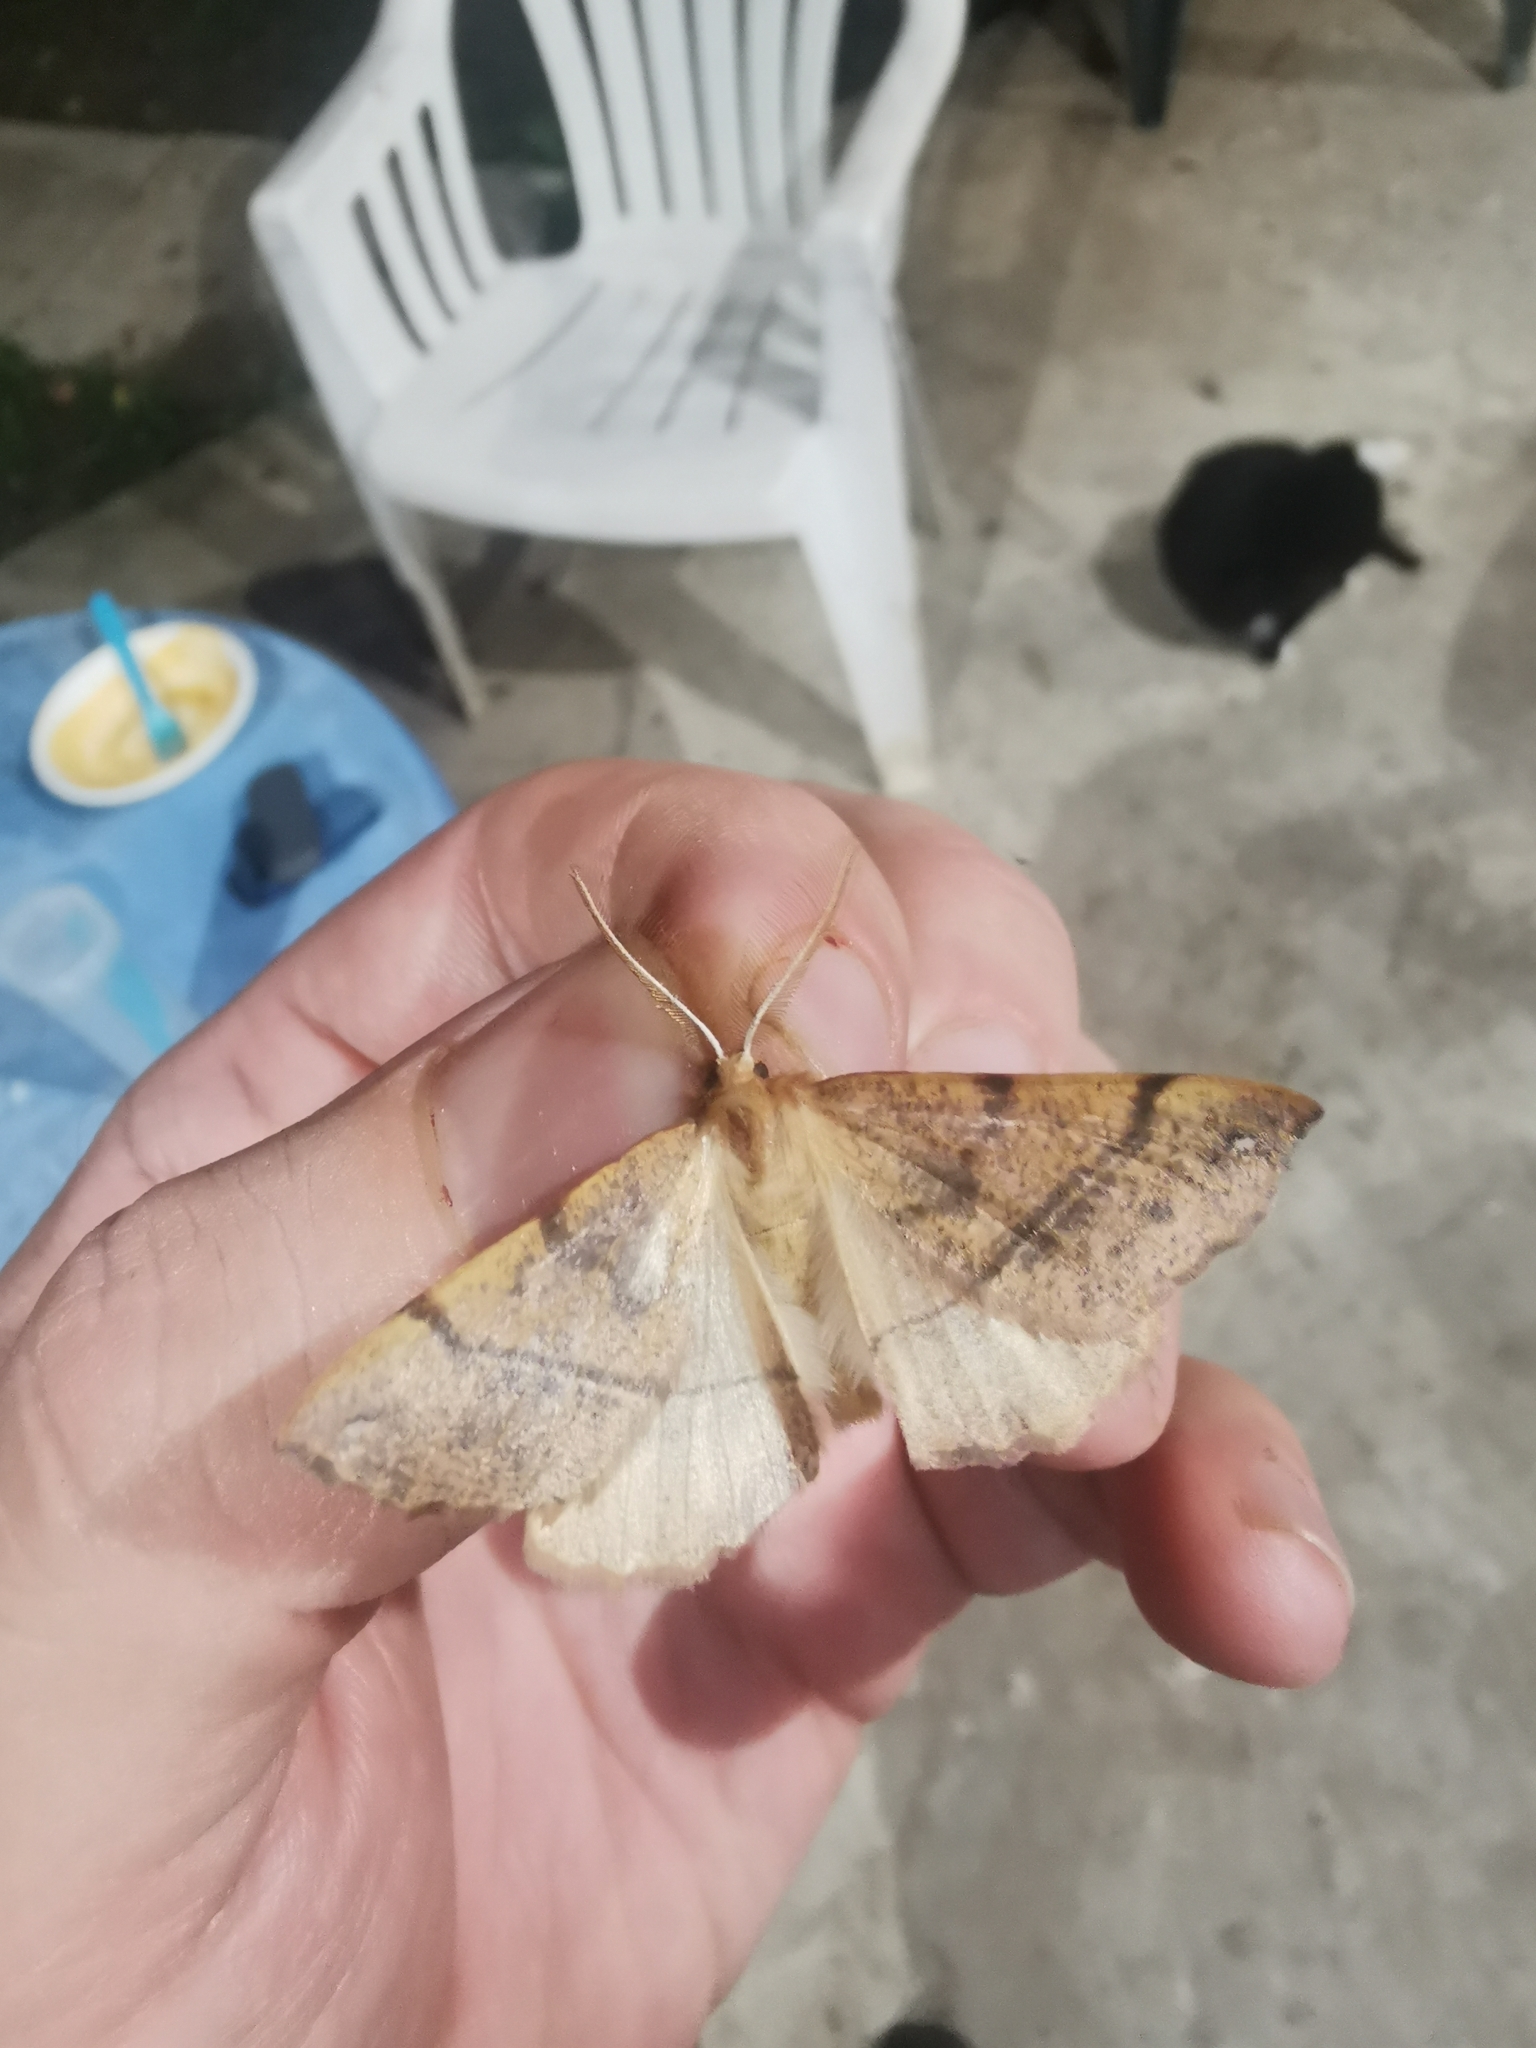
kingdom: Animalia
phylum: Arthropoda
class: Insecta
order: Lepidoptera
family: Geometridae
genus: Colotois
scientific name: Colotois pennaria
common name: Feathered thorn
